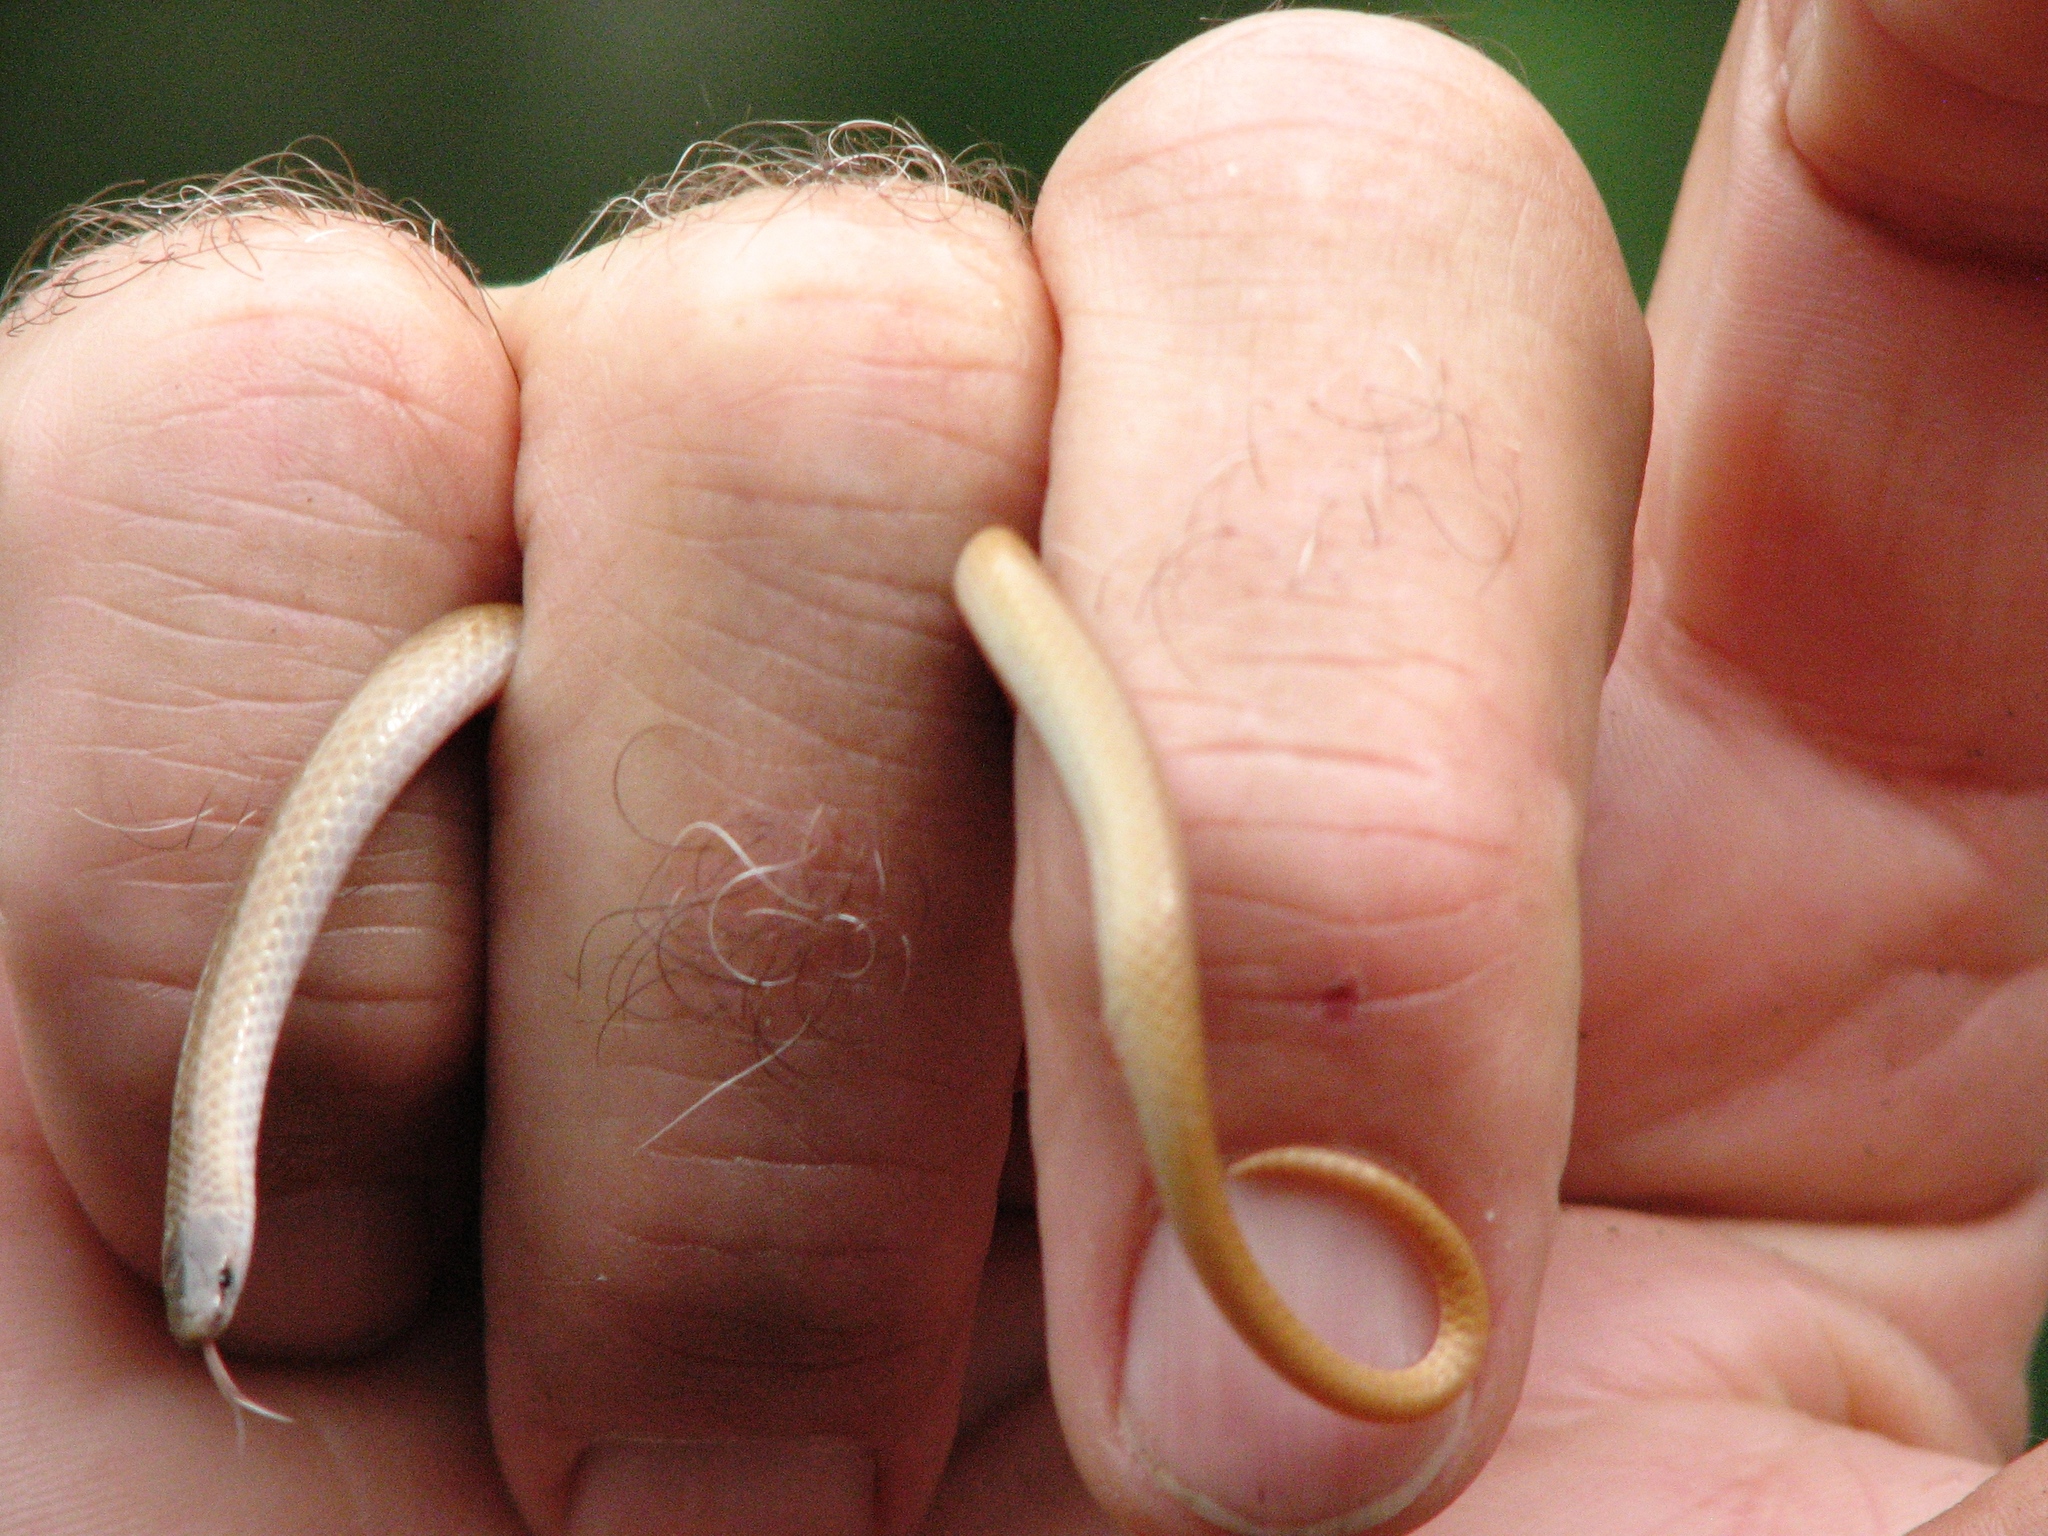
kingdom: Animalia
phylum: Chordata
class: Squamata
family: Colubridae
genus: Tantilla
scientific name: Tantilla gracilis
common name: Flathead snake
